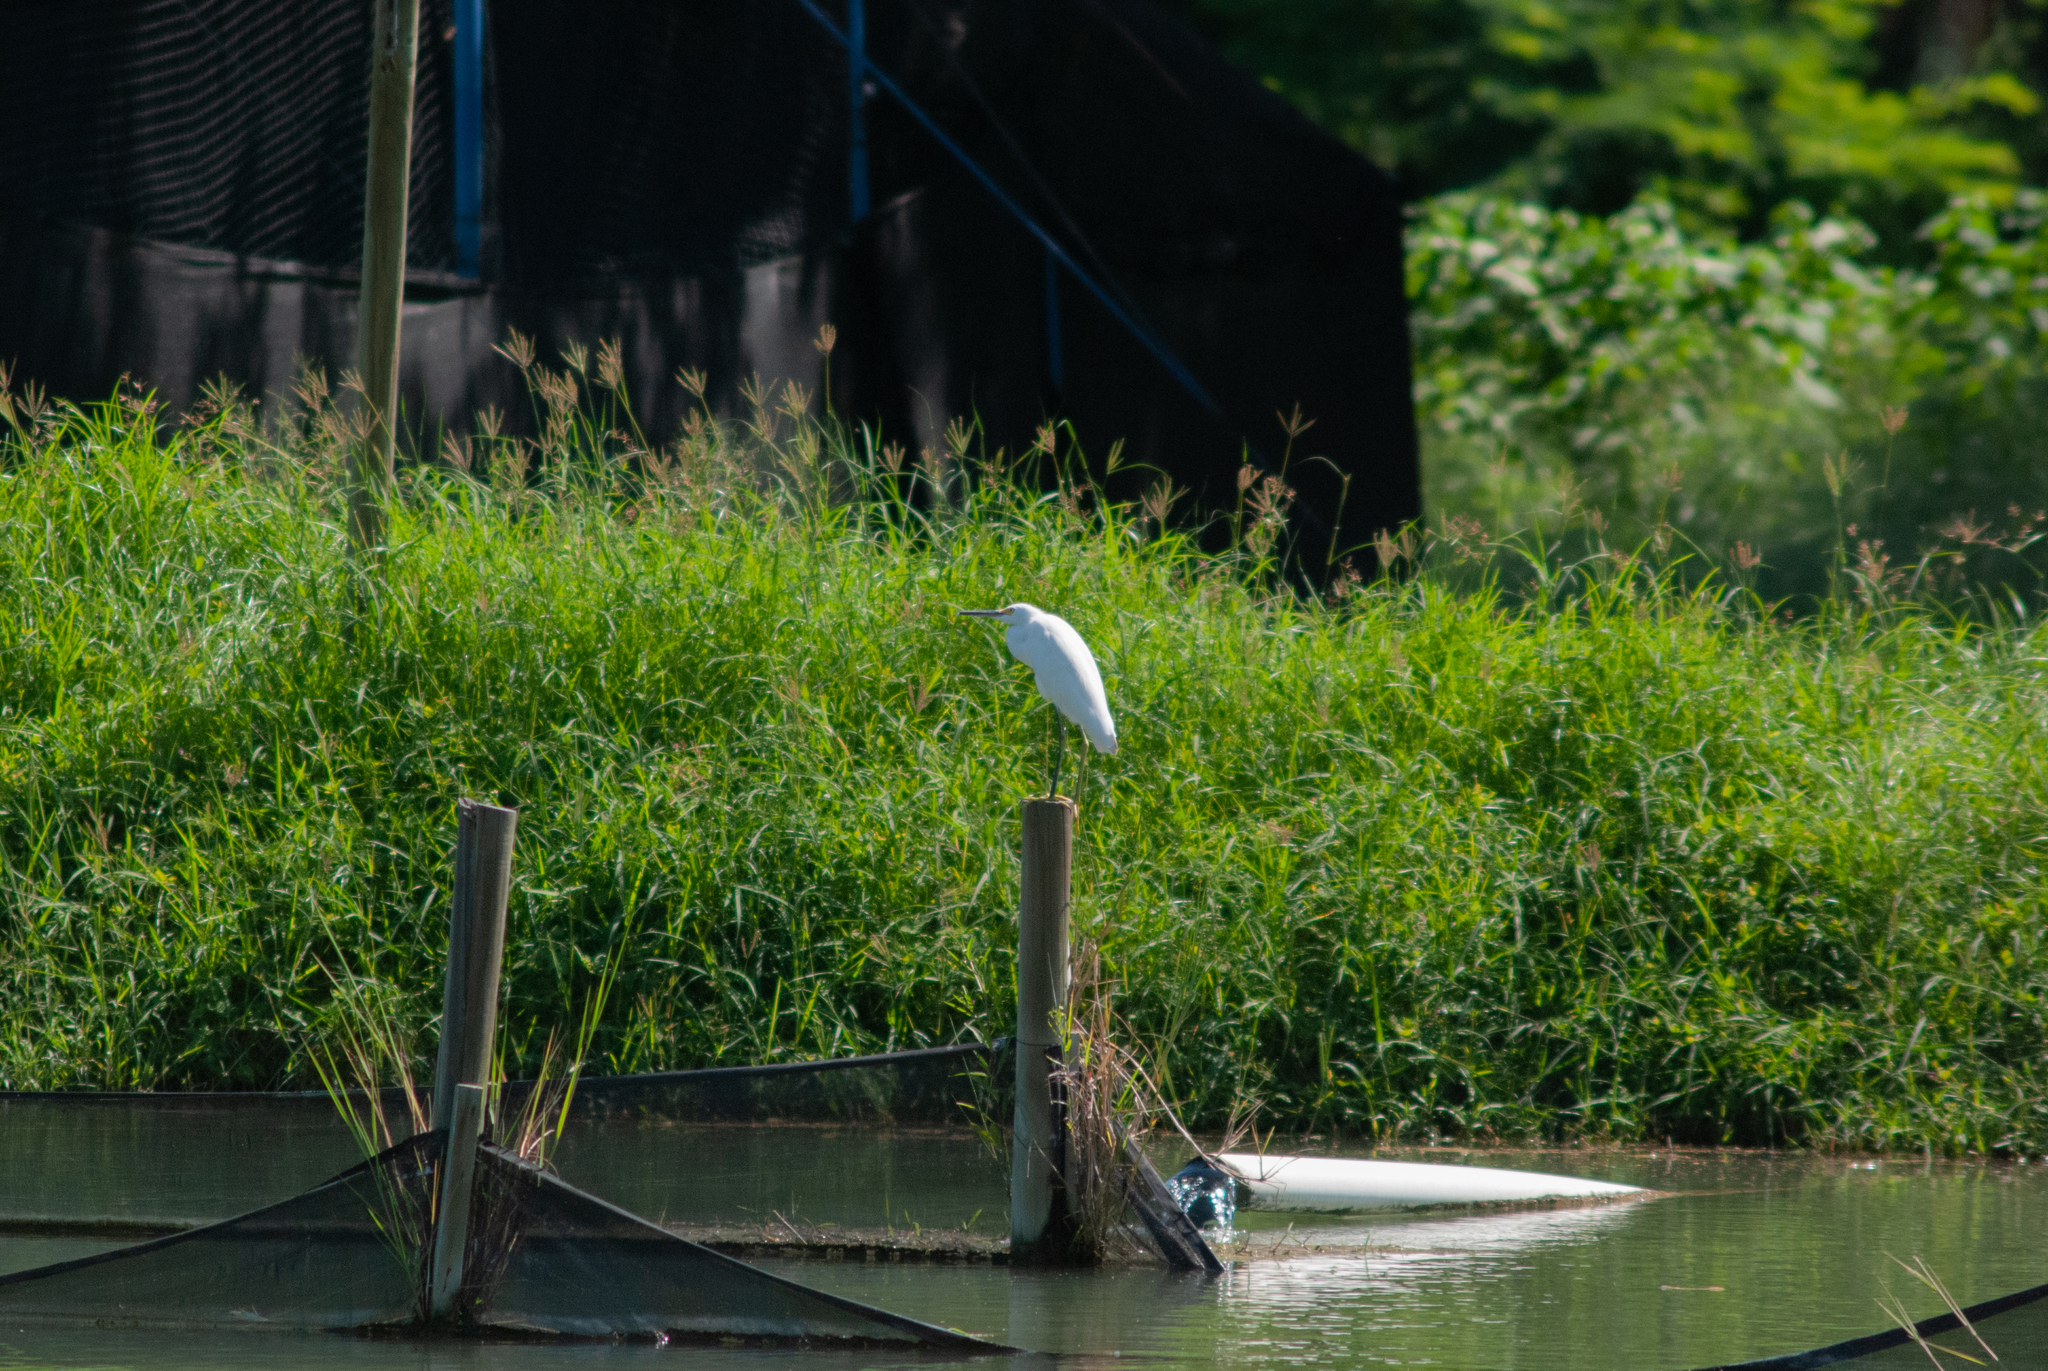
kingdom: Animalia
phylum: Chordata
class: Aves
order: Pelecaniformes
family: Ardeidae
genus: Egretta
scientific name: Egretta thula
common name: Snowy egret
